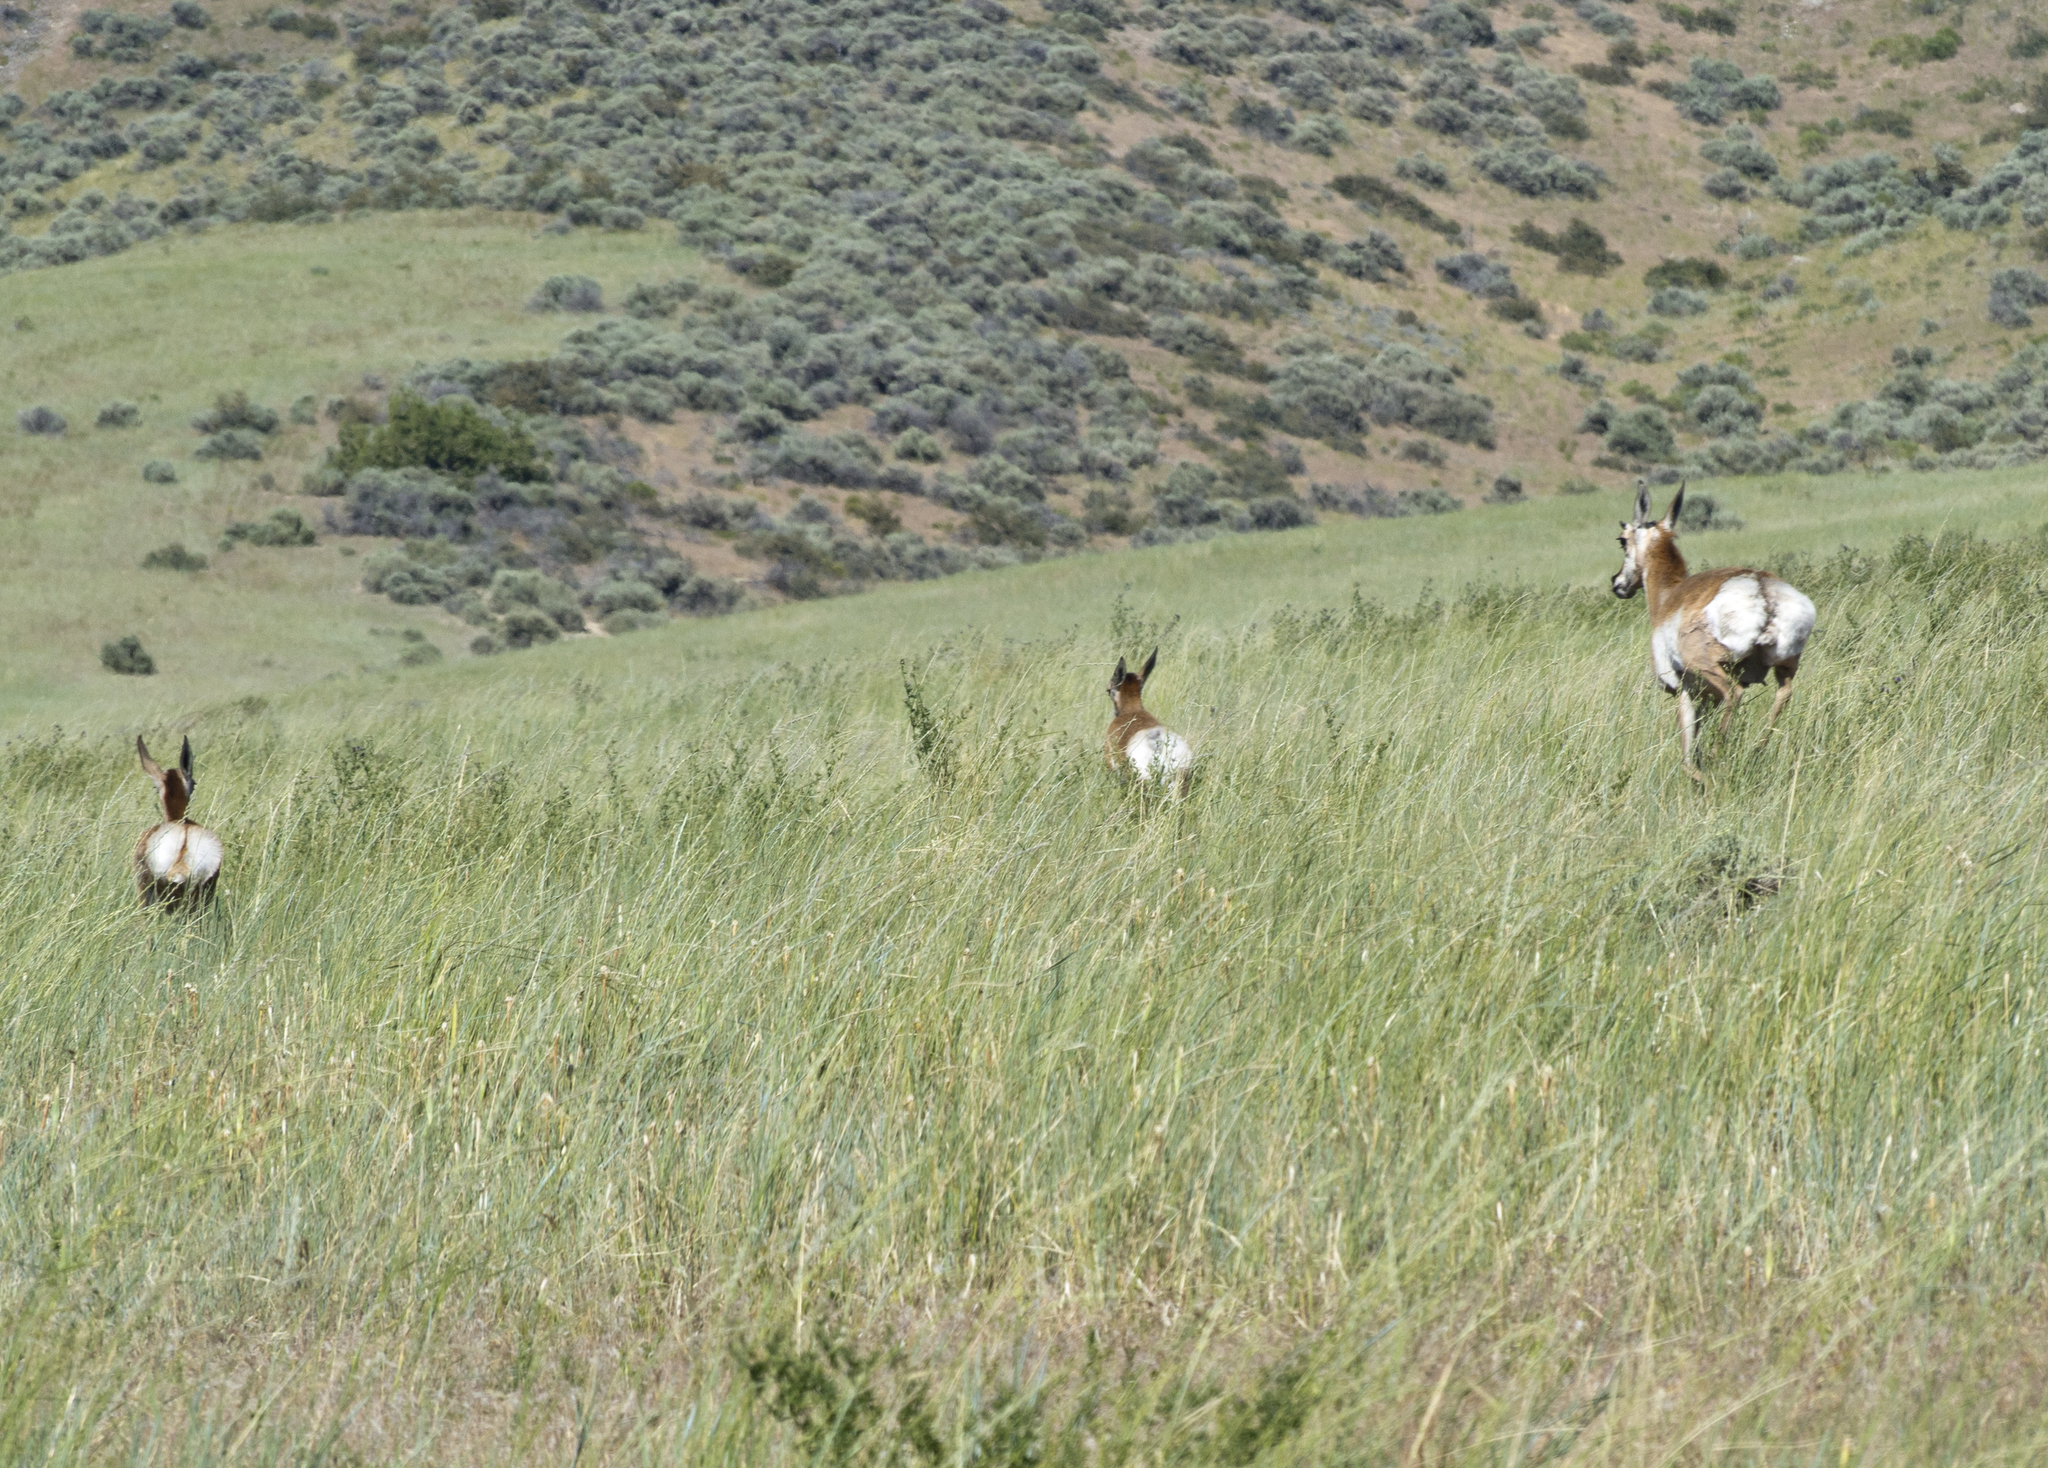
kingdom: Animalia
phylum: Chordata
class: Mammalia
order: Artiodactyla
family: Antilocapridae
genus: Antilocapra
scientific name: Antilocapra americana
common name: Pronghorn
